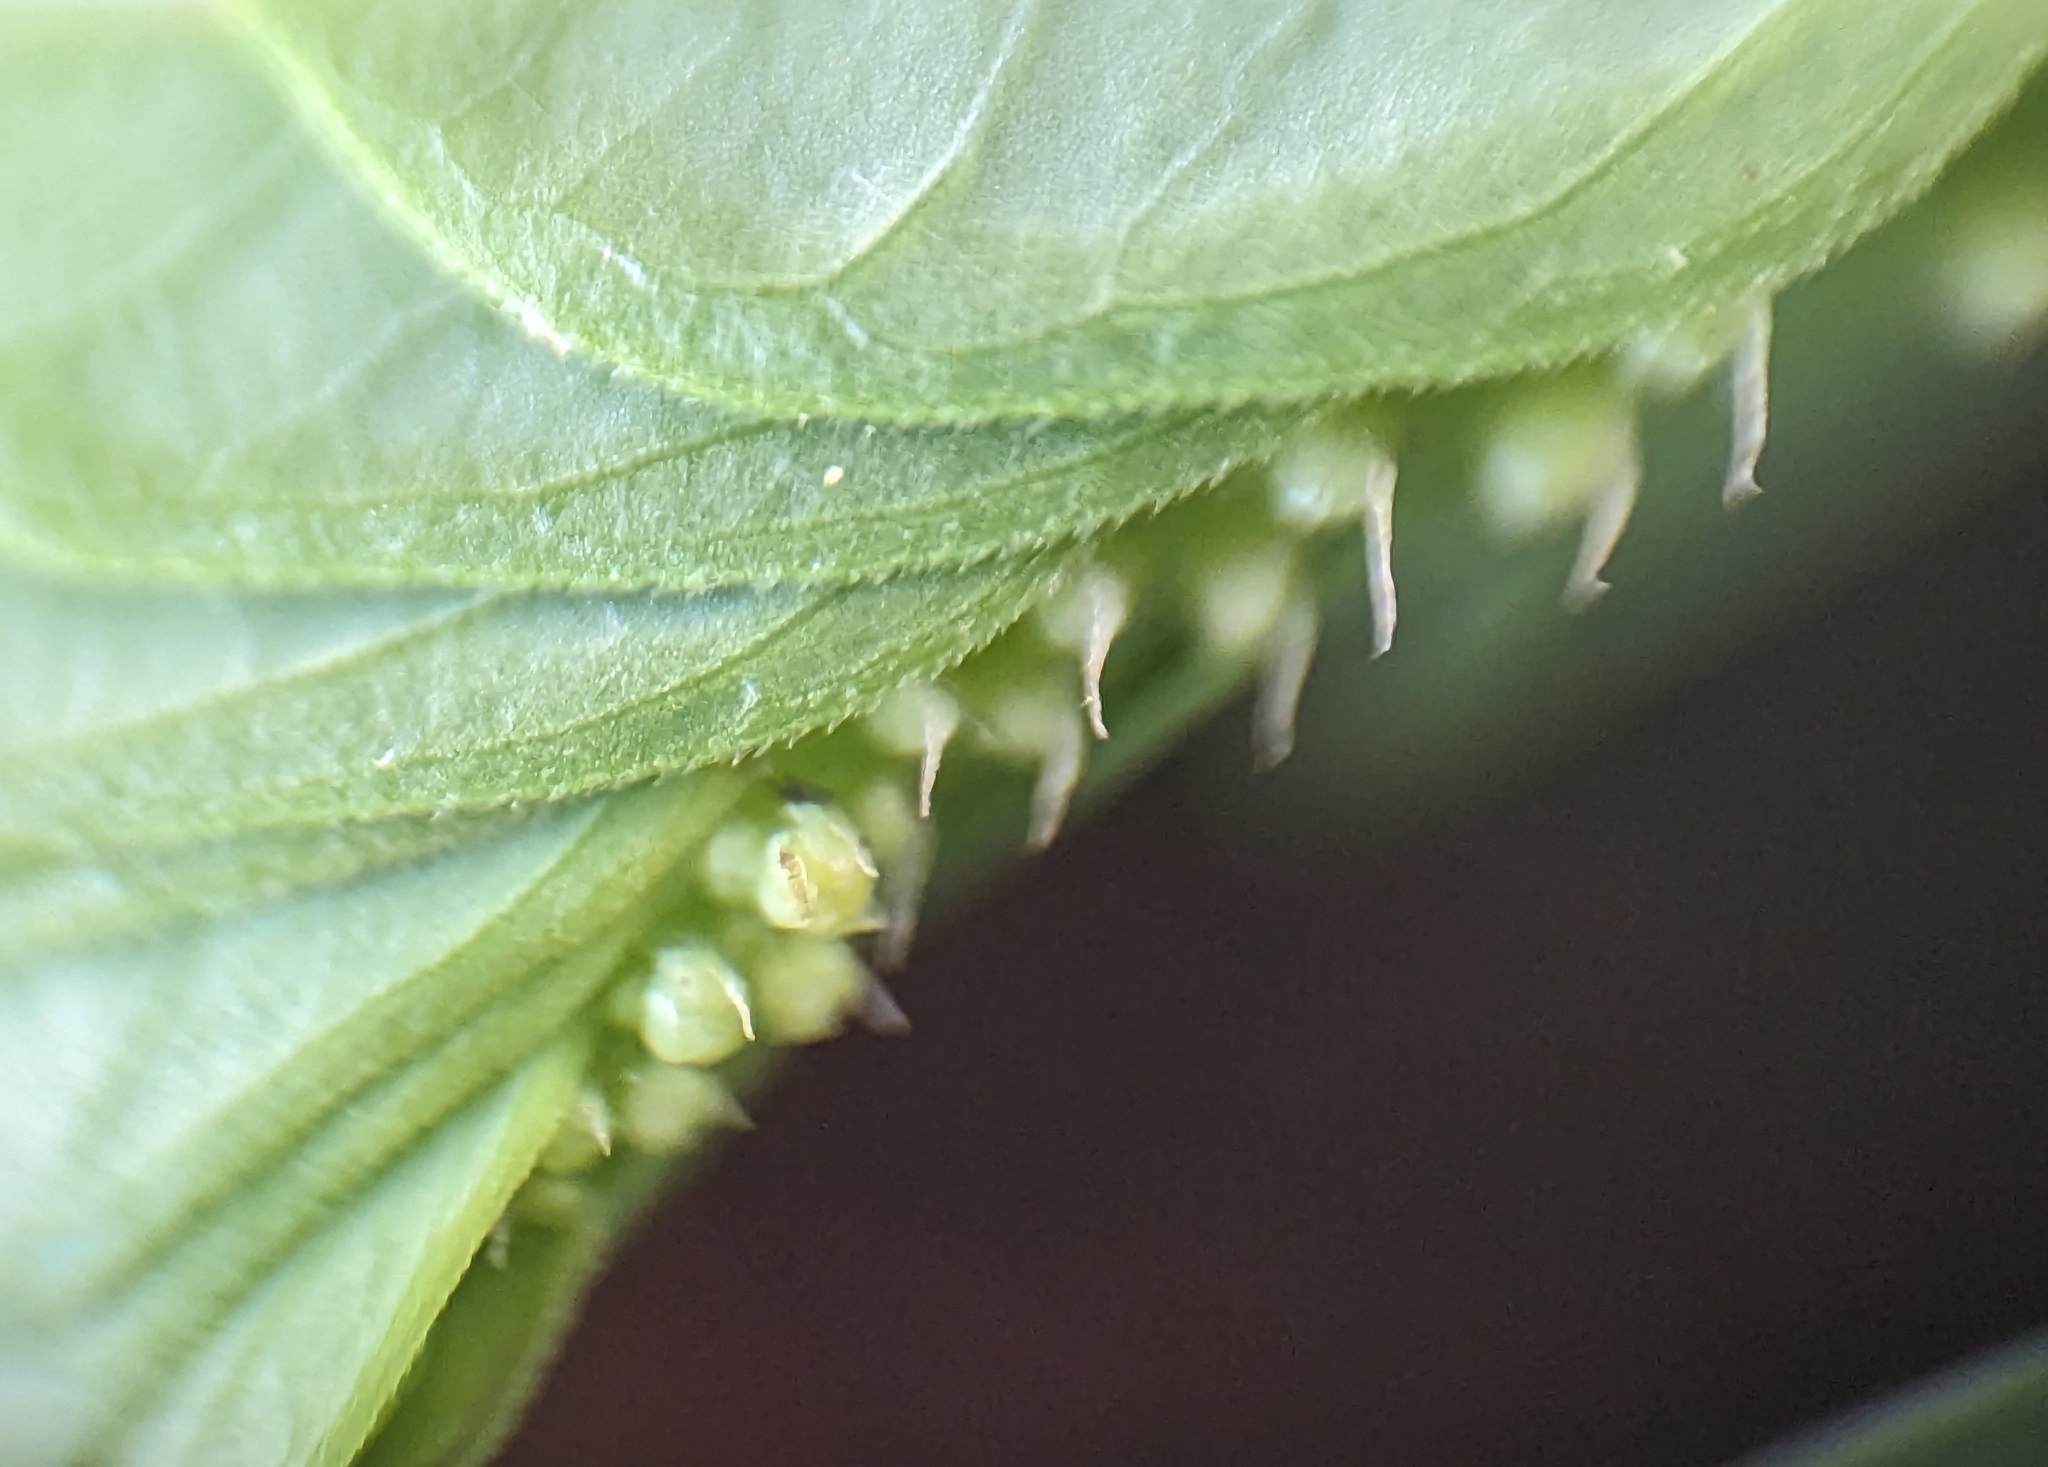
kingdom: Plantae
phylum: Tracheophyta
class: Magnoliopsida
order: Malpighiales
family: Phyllanthaceae
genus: Phyllanthus
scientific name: Phyllanthus urinaria
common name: Chamber bitter
